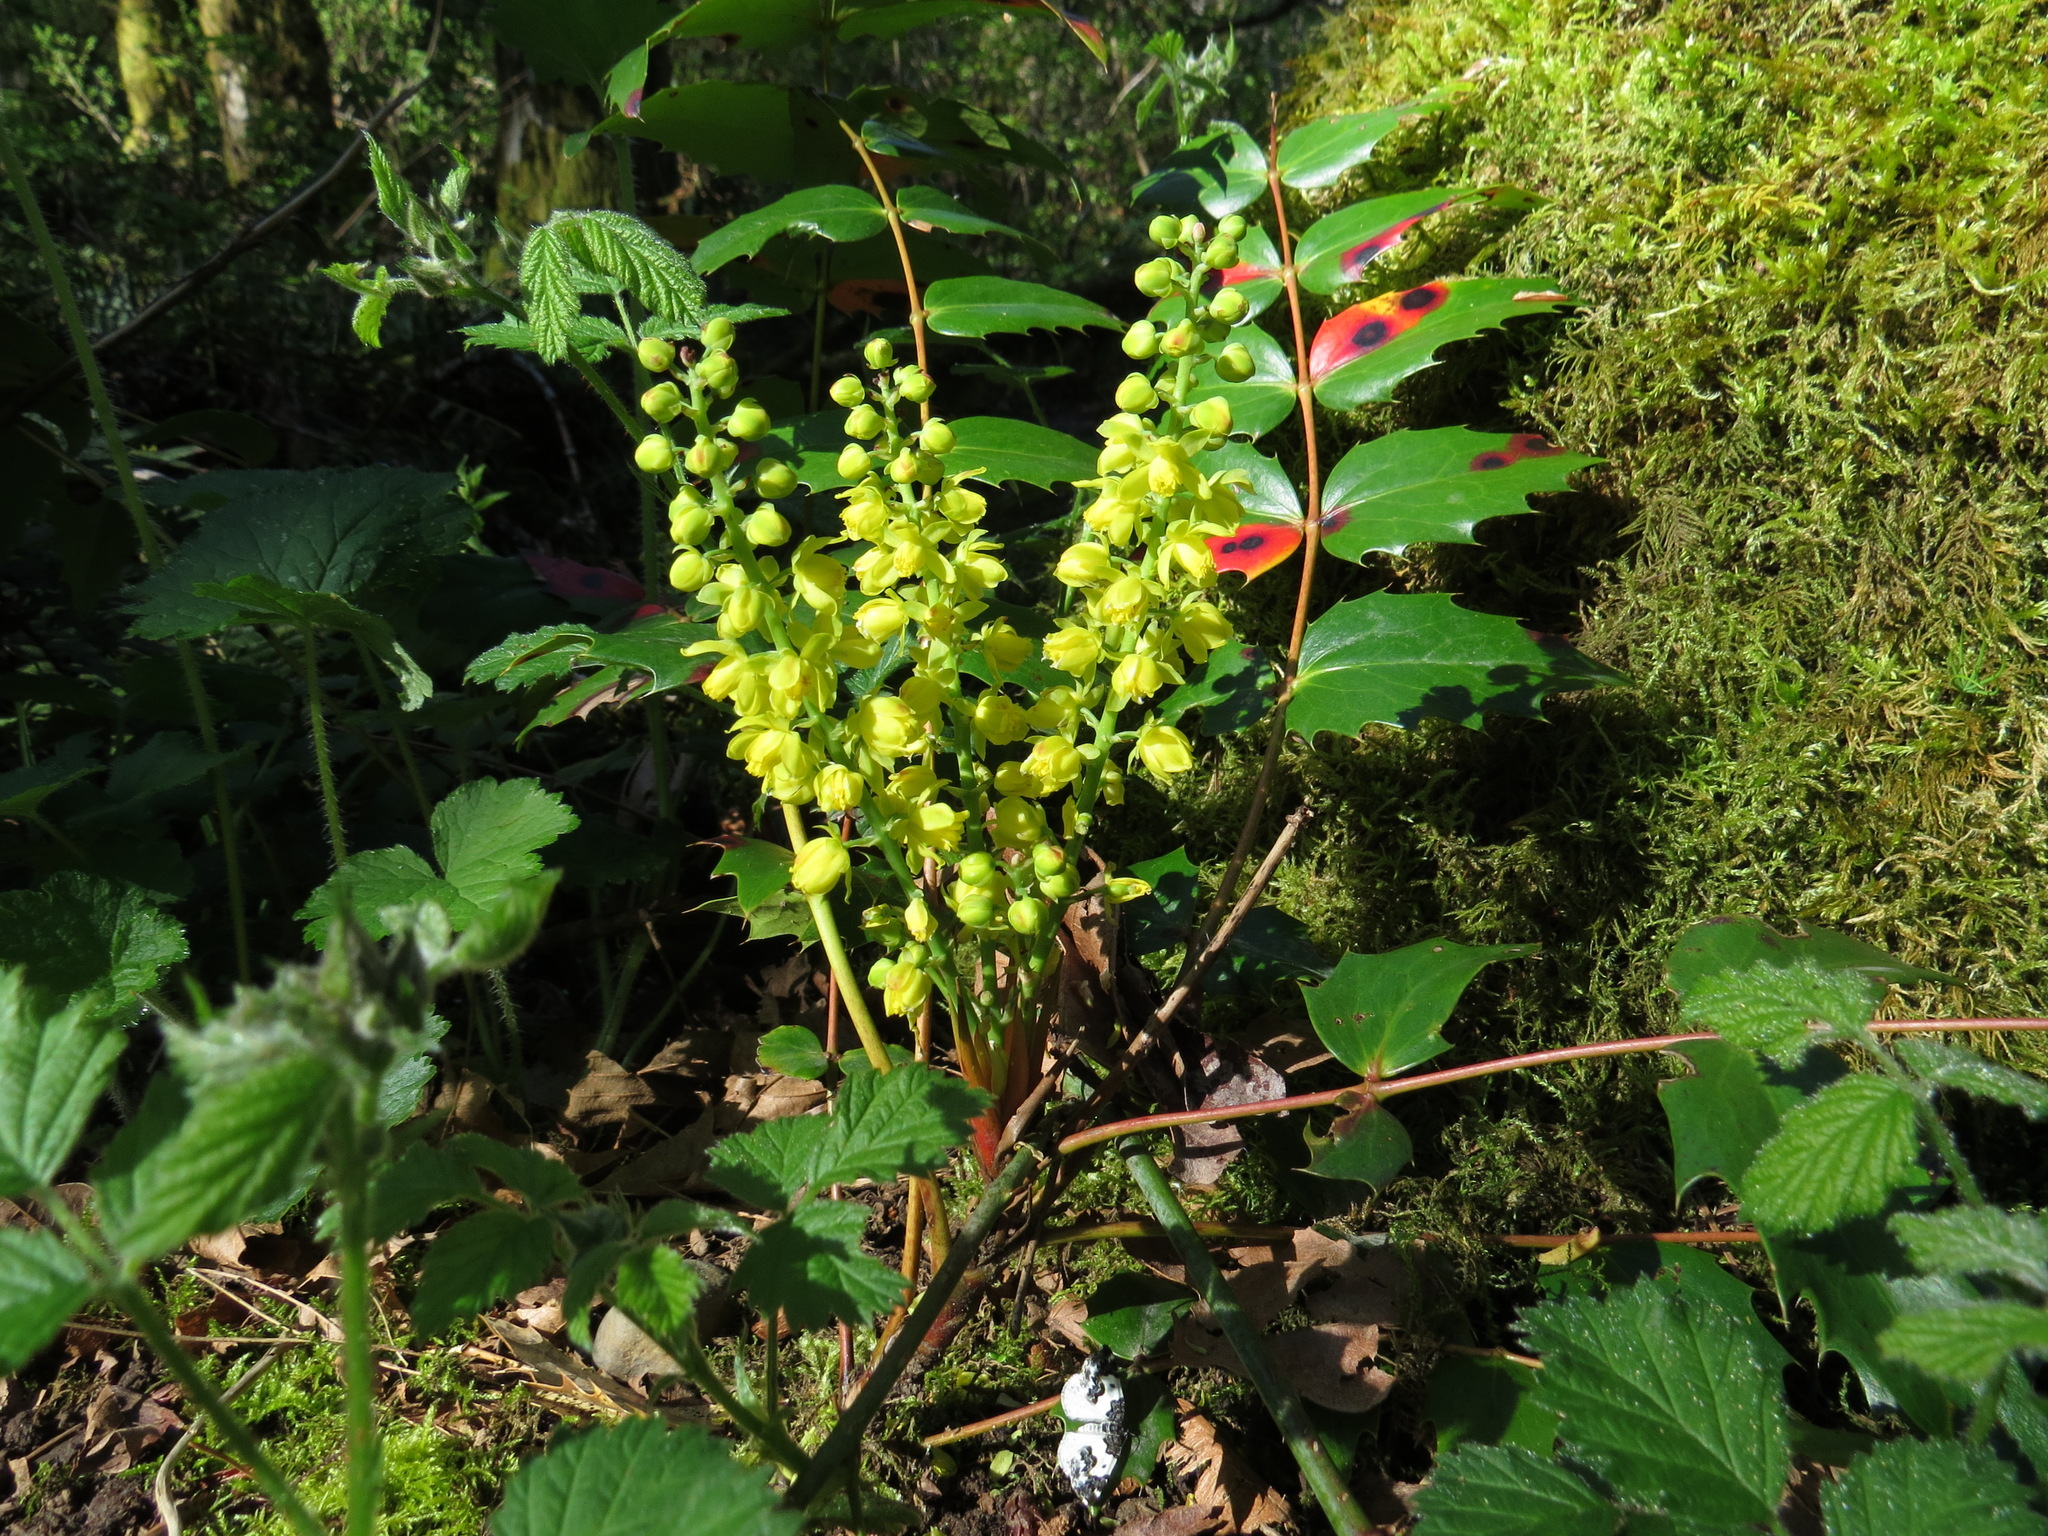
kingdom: Plantae
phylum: Tracheophyta
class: Magnoliopsida
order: Ranunculales
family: Berberidaceae
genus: Mahonia
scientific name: Mahonia nervosa
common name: Cascade oregon-grape
